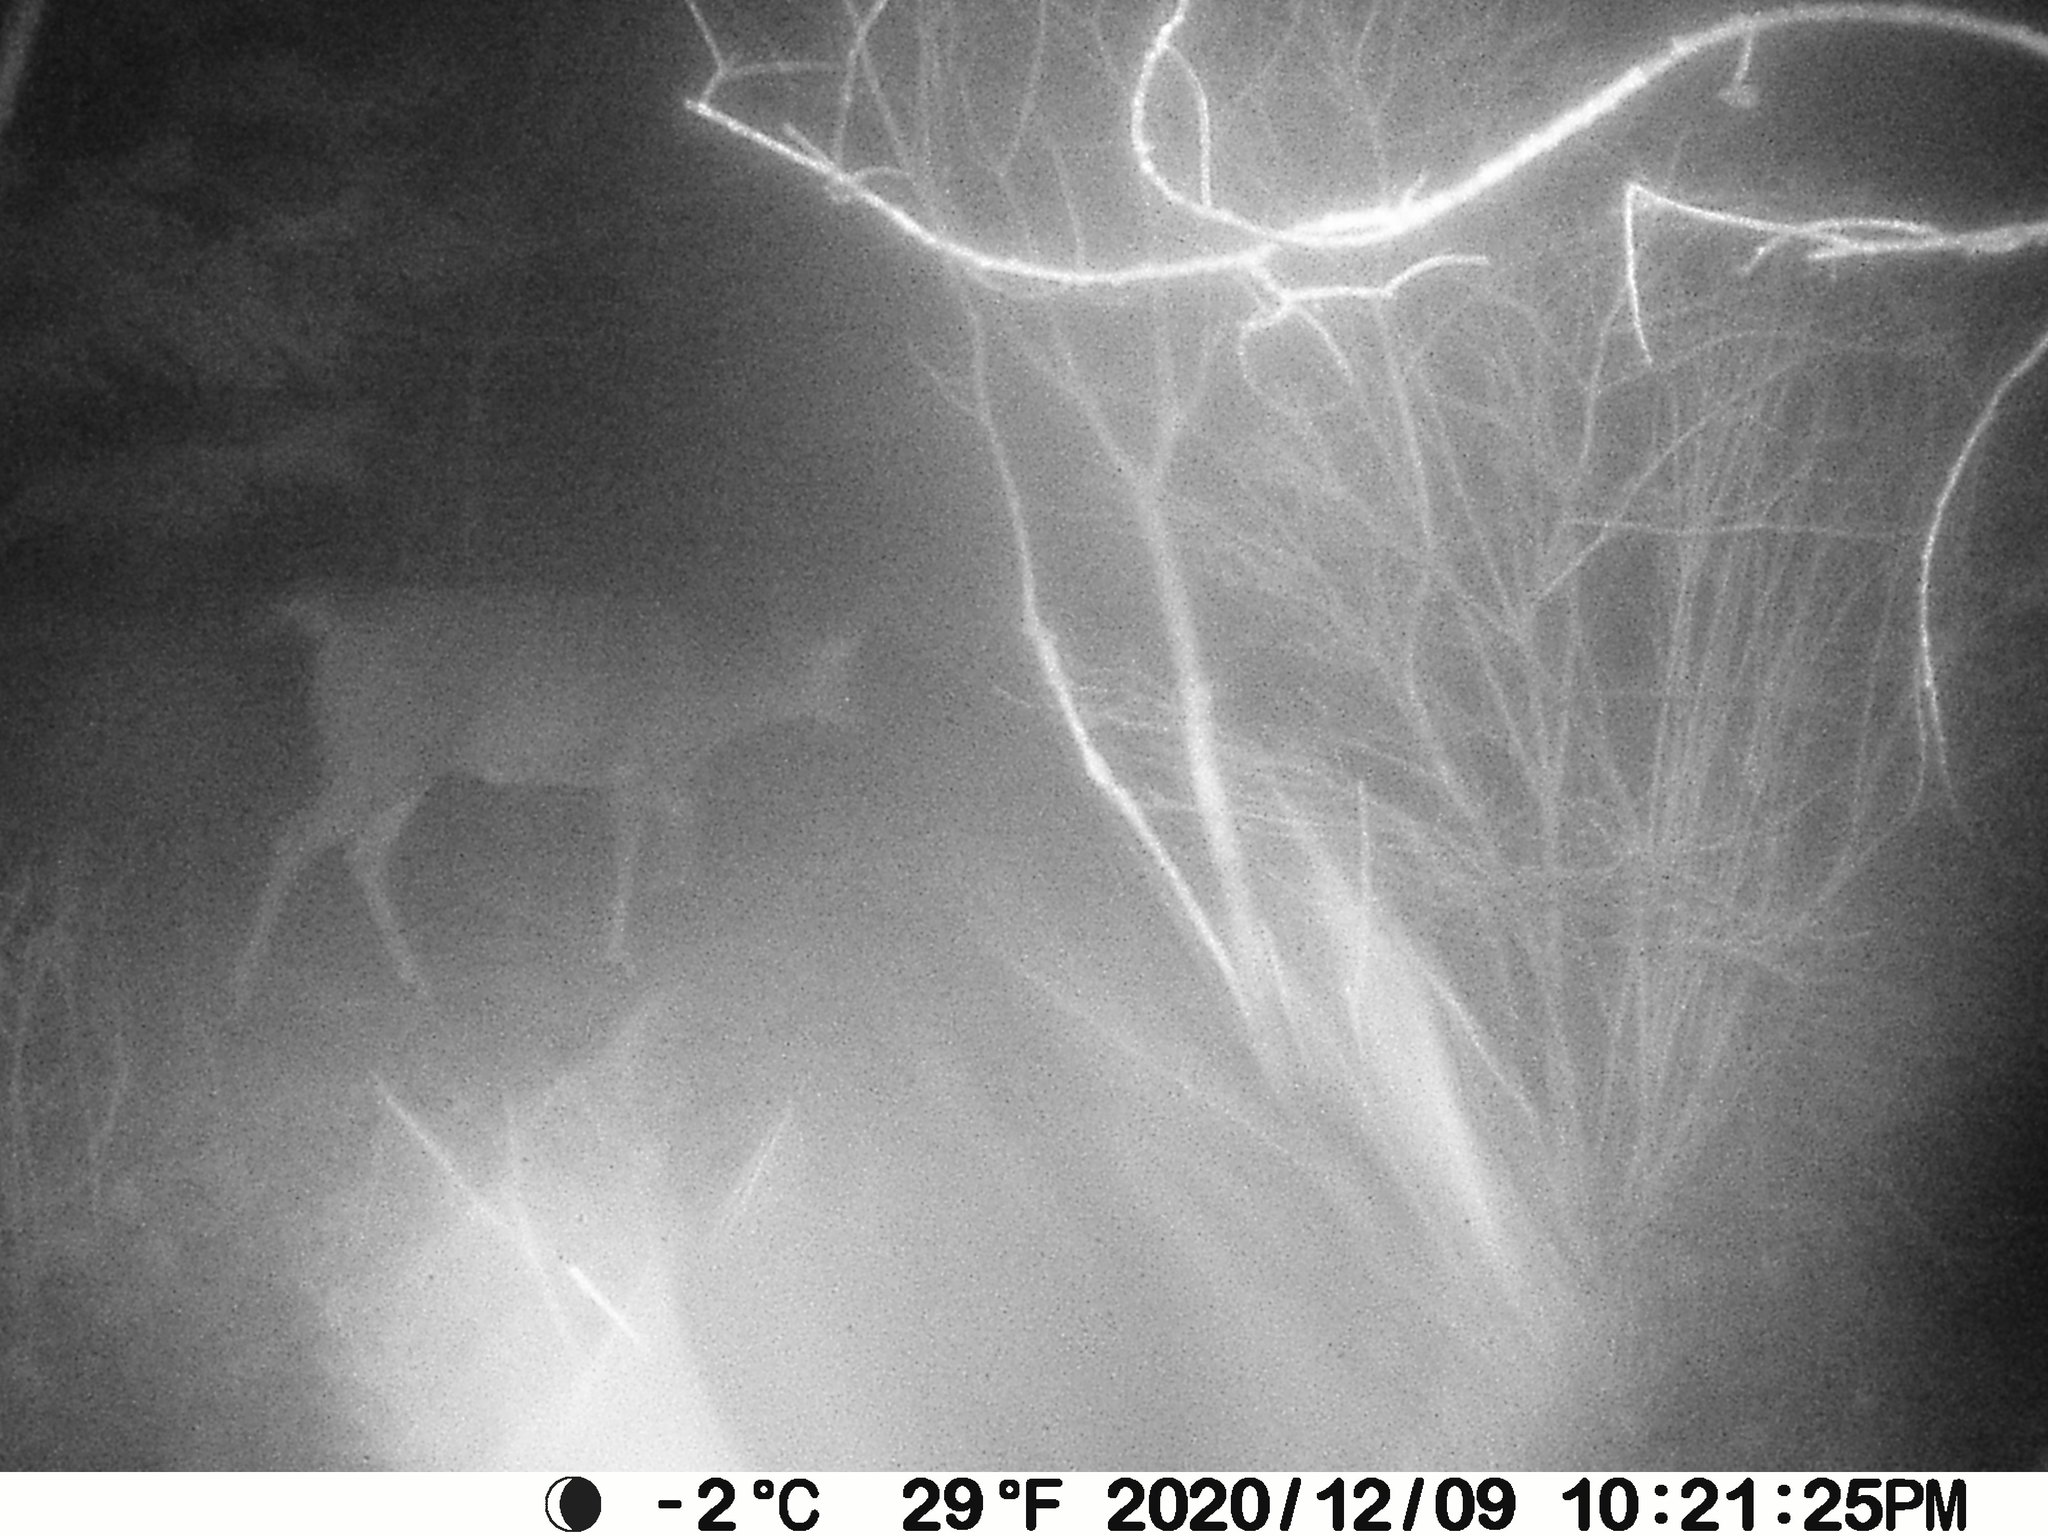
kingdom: Animalia
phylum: Chordata
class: Mammalia
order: Artiodactyla
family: Cervidae
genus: Odocoileus
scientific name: Odocoileus virginianus
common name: White-tailed deer
